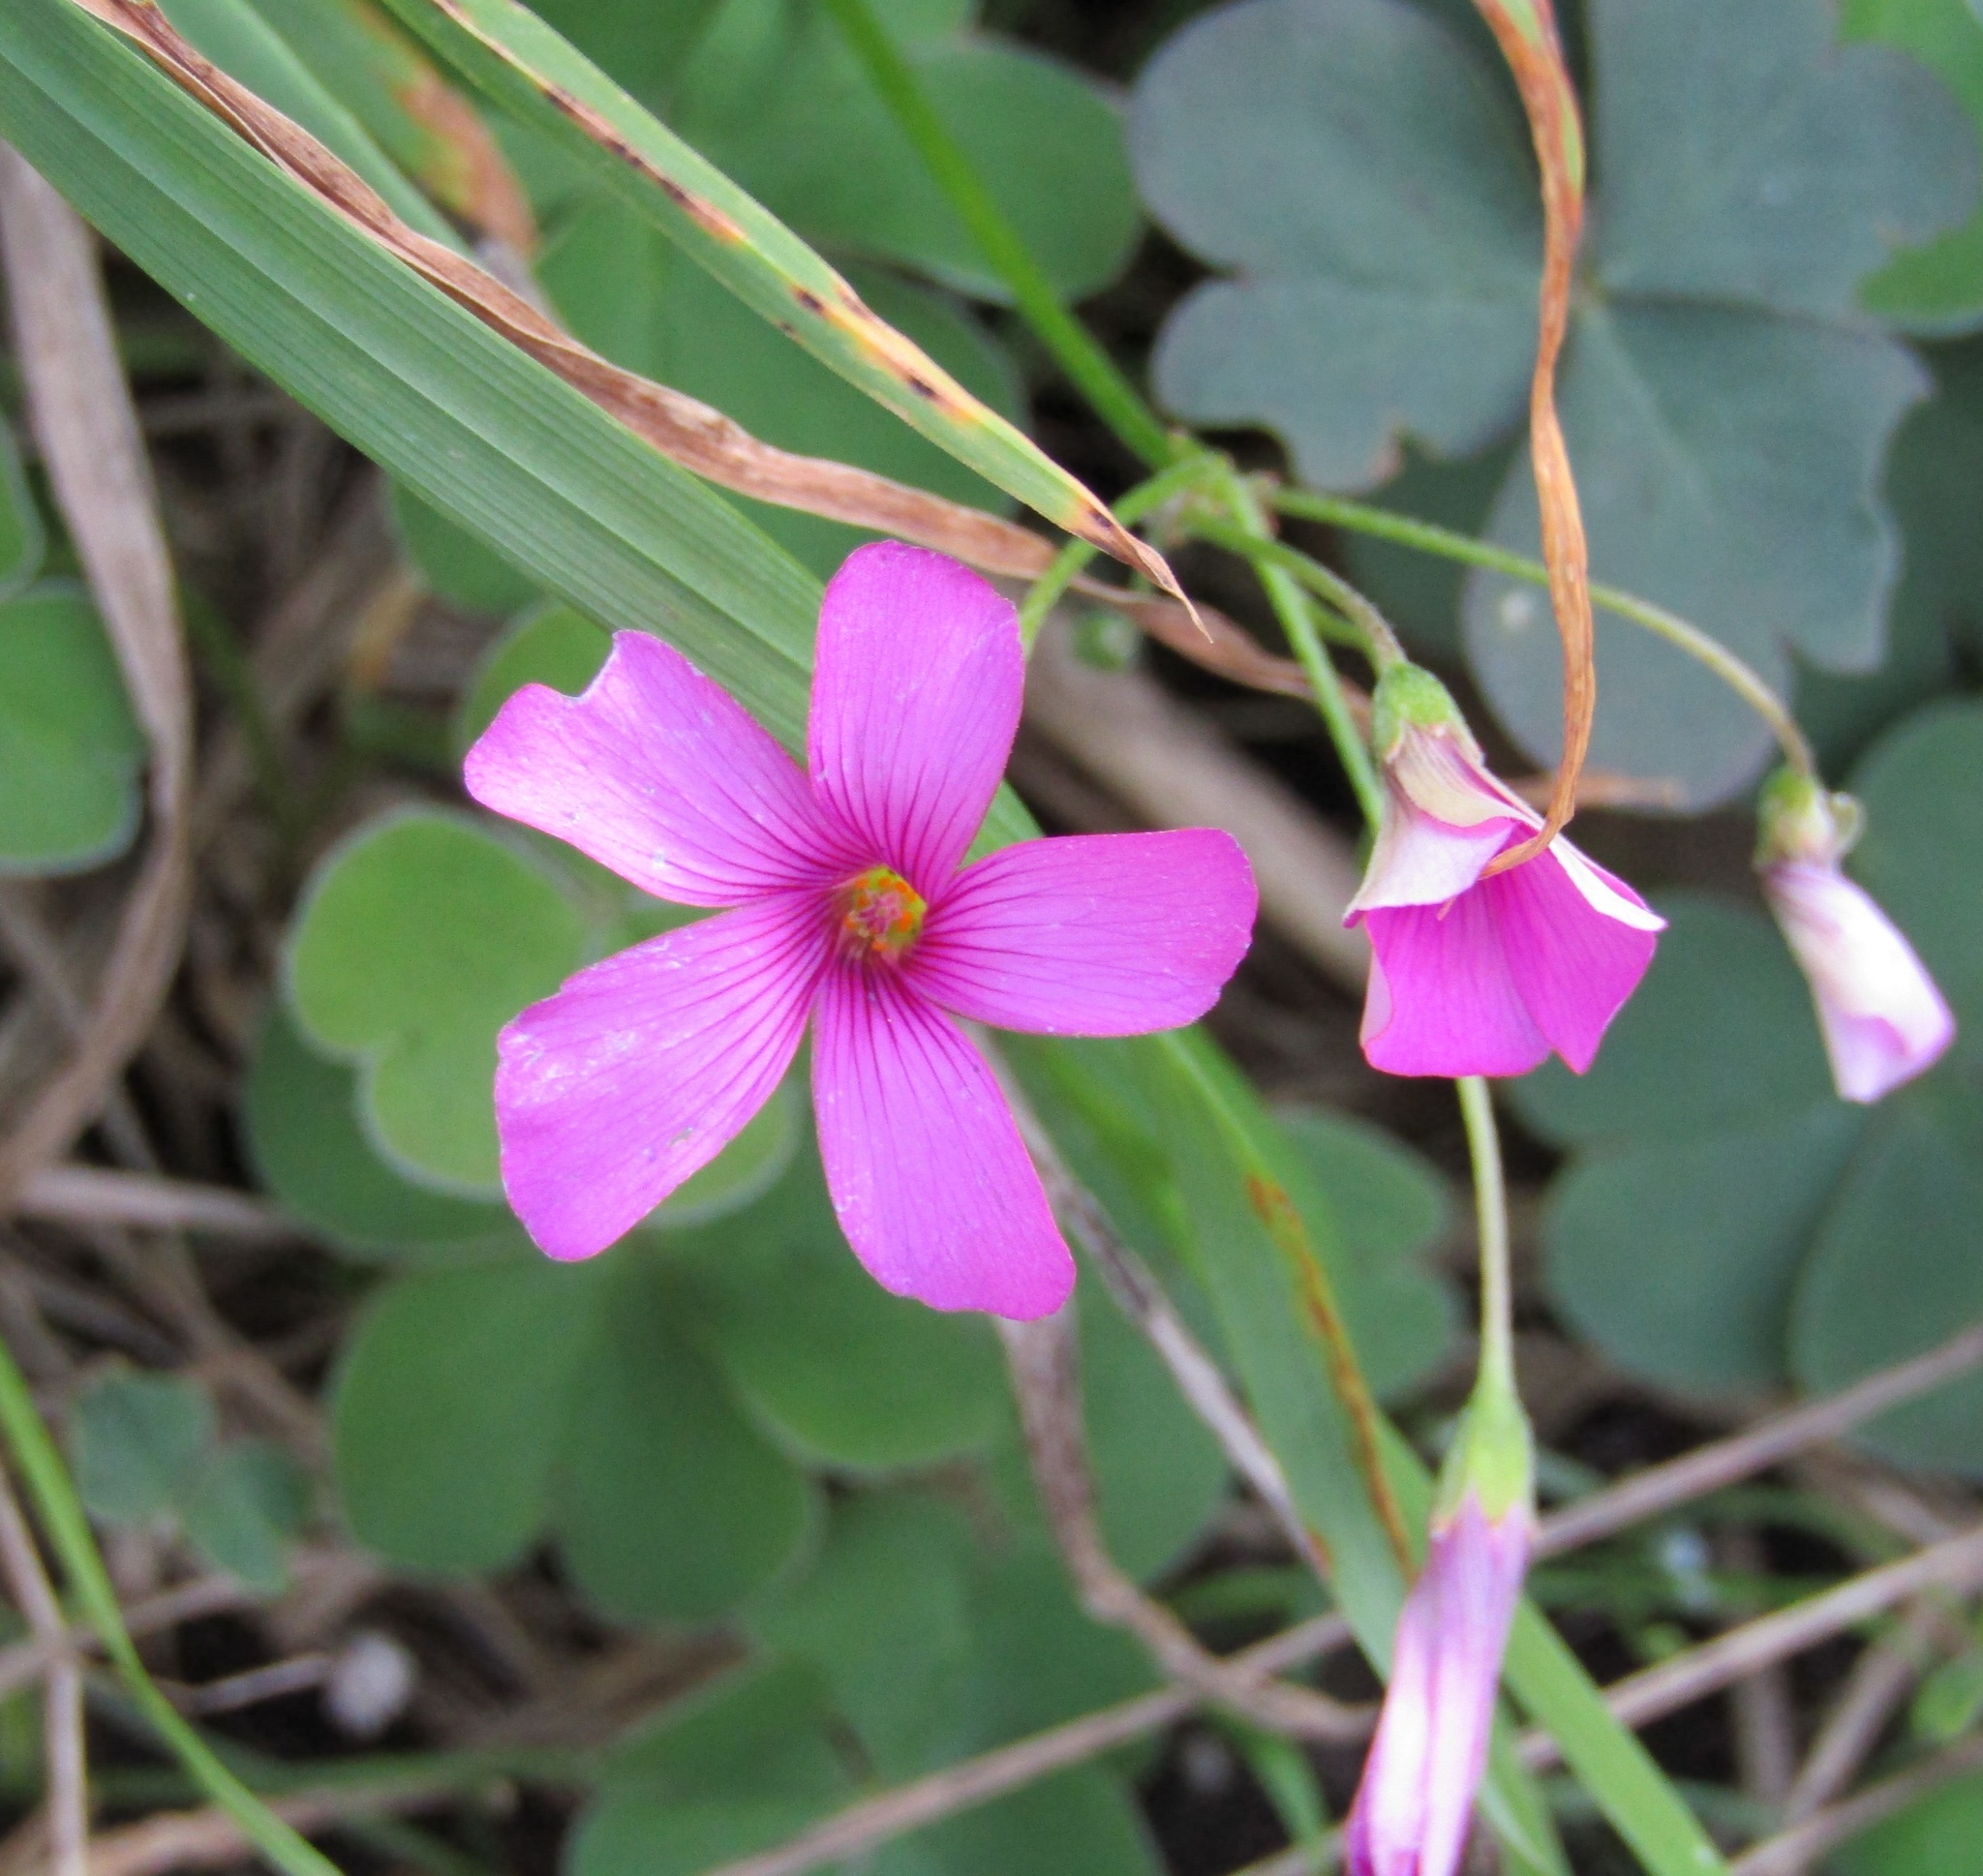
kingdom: Plantae
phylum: Tracheophyta
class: Magnoliopsida
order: Oxalidales
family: Oxalidaceae
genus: Oxalis
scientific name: Oxalis articulata
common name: Pink-sorrel
